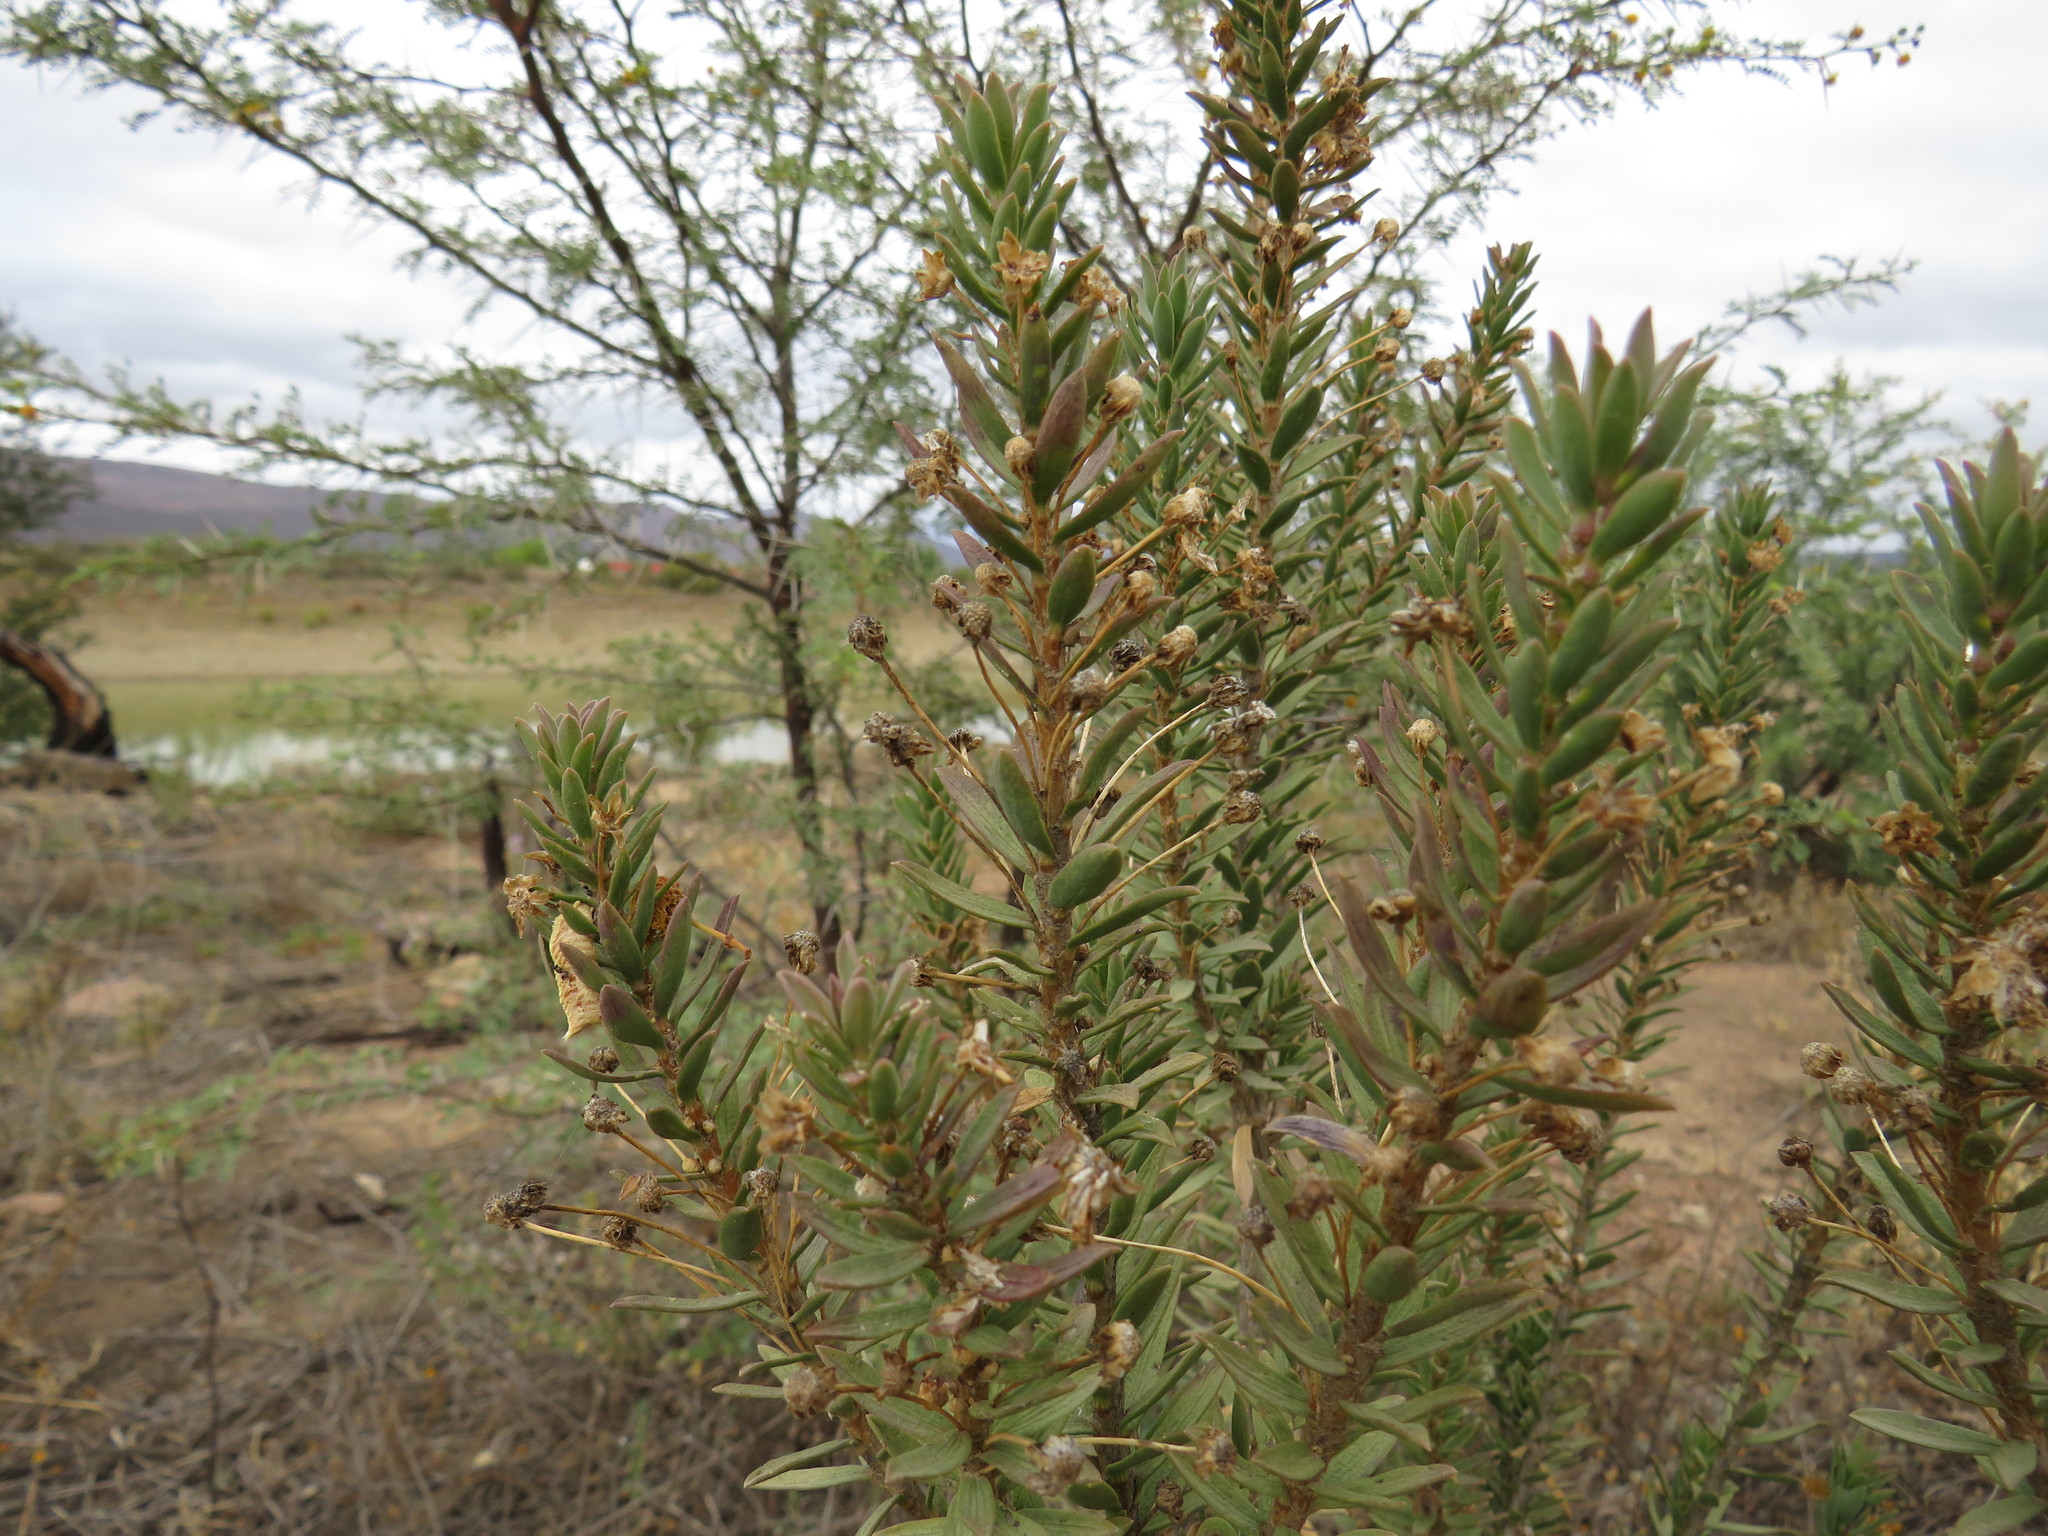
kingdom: Plantae
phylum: Tracheophyta
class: Magnoliopsida
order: Asterales
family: Asteraceae
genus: Euryops
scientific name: Euryops lateriflorus
